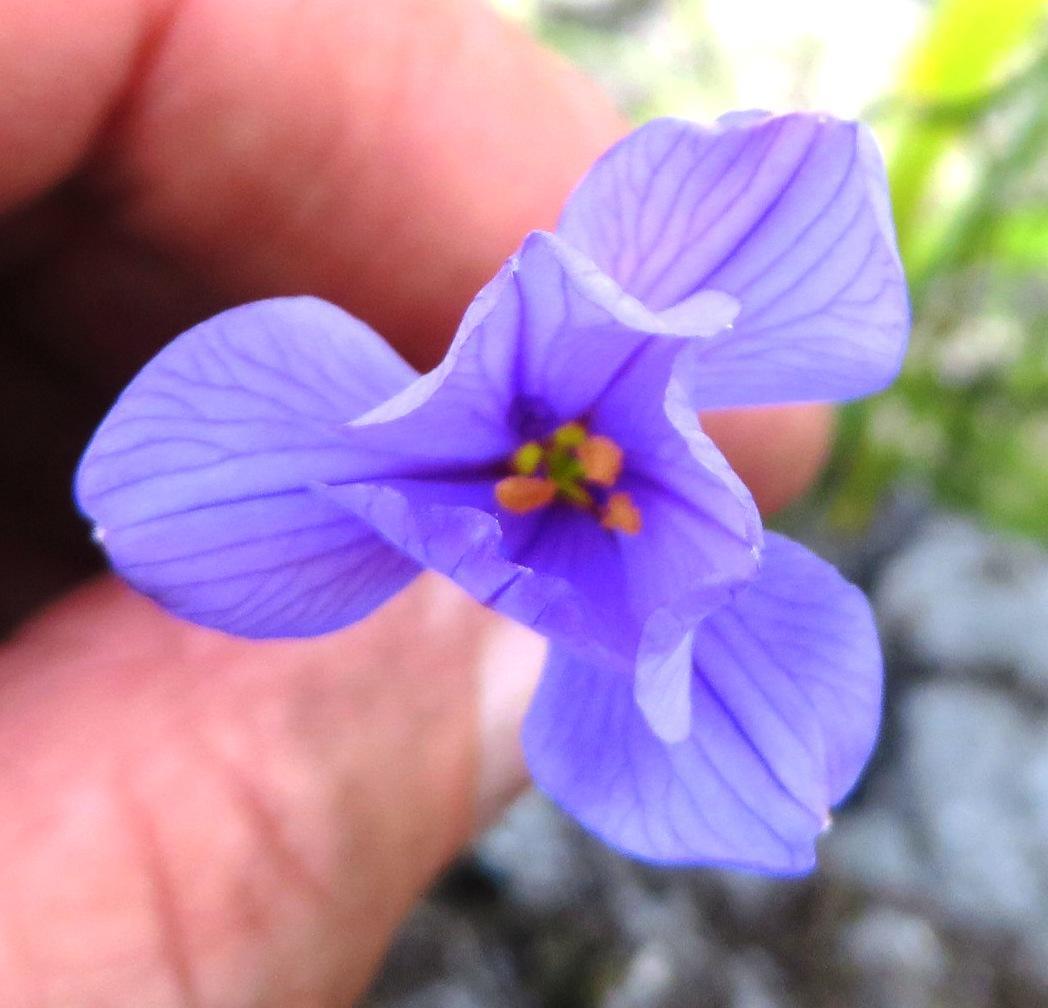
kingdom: Plantae
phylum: Tracheophyta
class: Liliopsida
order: Asparagales
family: Iridaceae
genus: Aristea
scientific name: Aristea juncifolia
